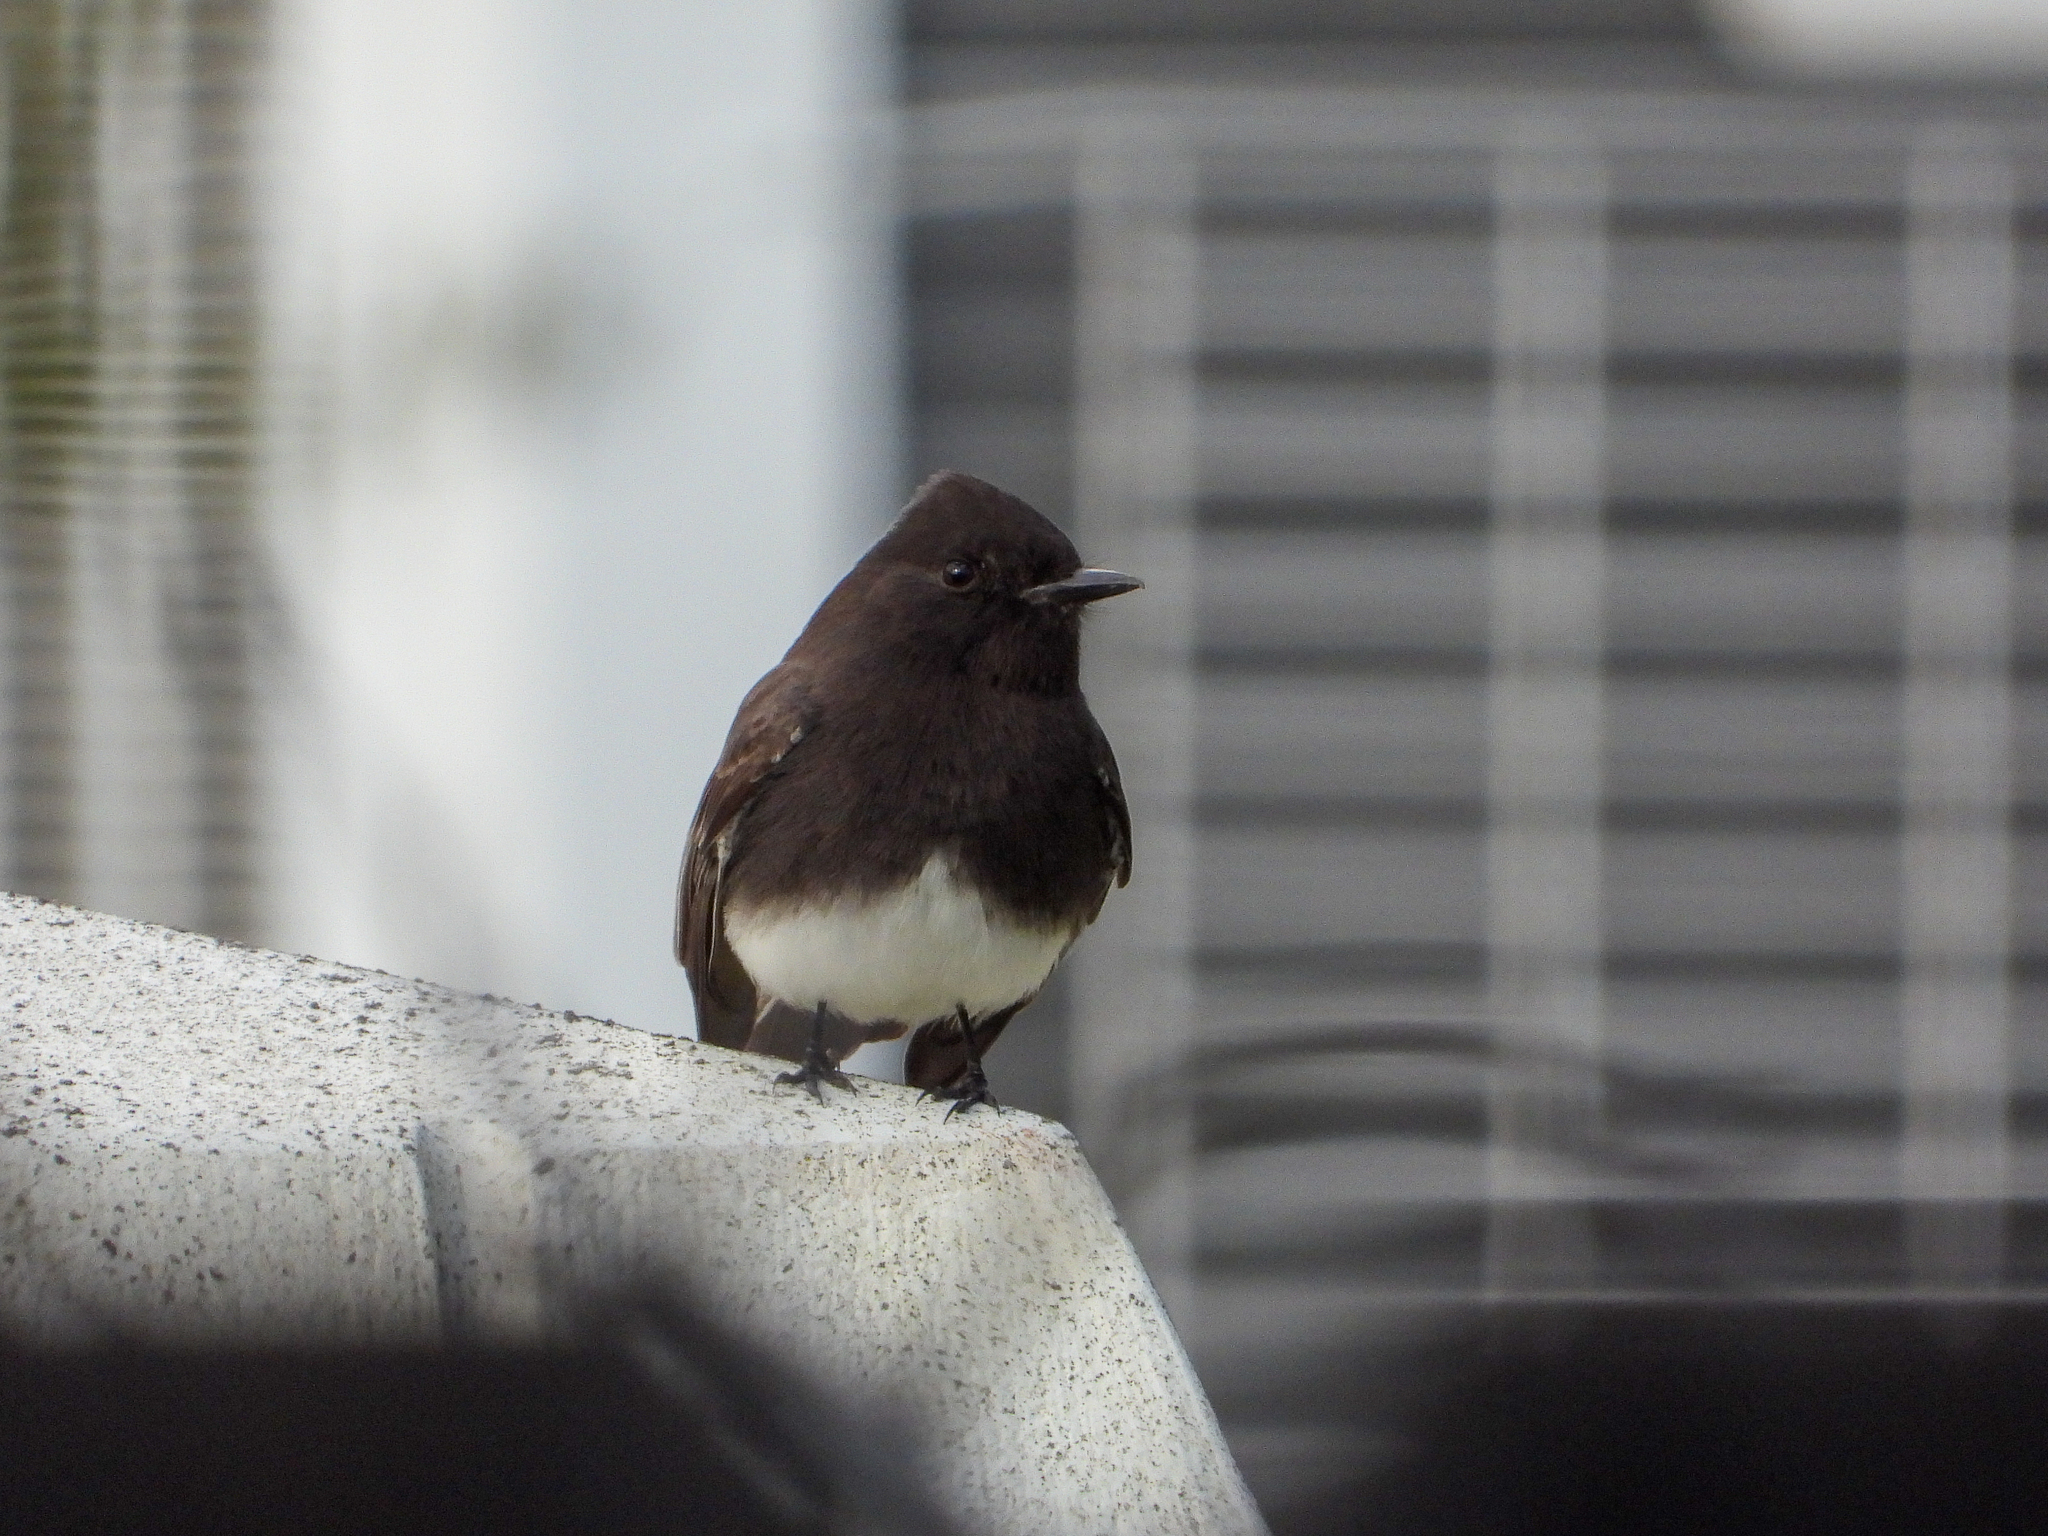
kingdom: Animalia
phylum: Chordata
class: Aves
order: Passeriformes
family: Tyrannidae
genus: Sayornis
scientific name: Sayornis nigricans
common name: Black phoebe
